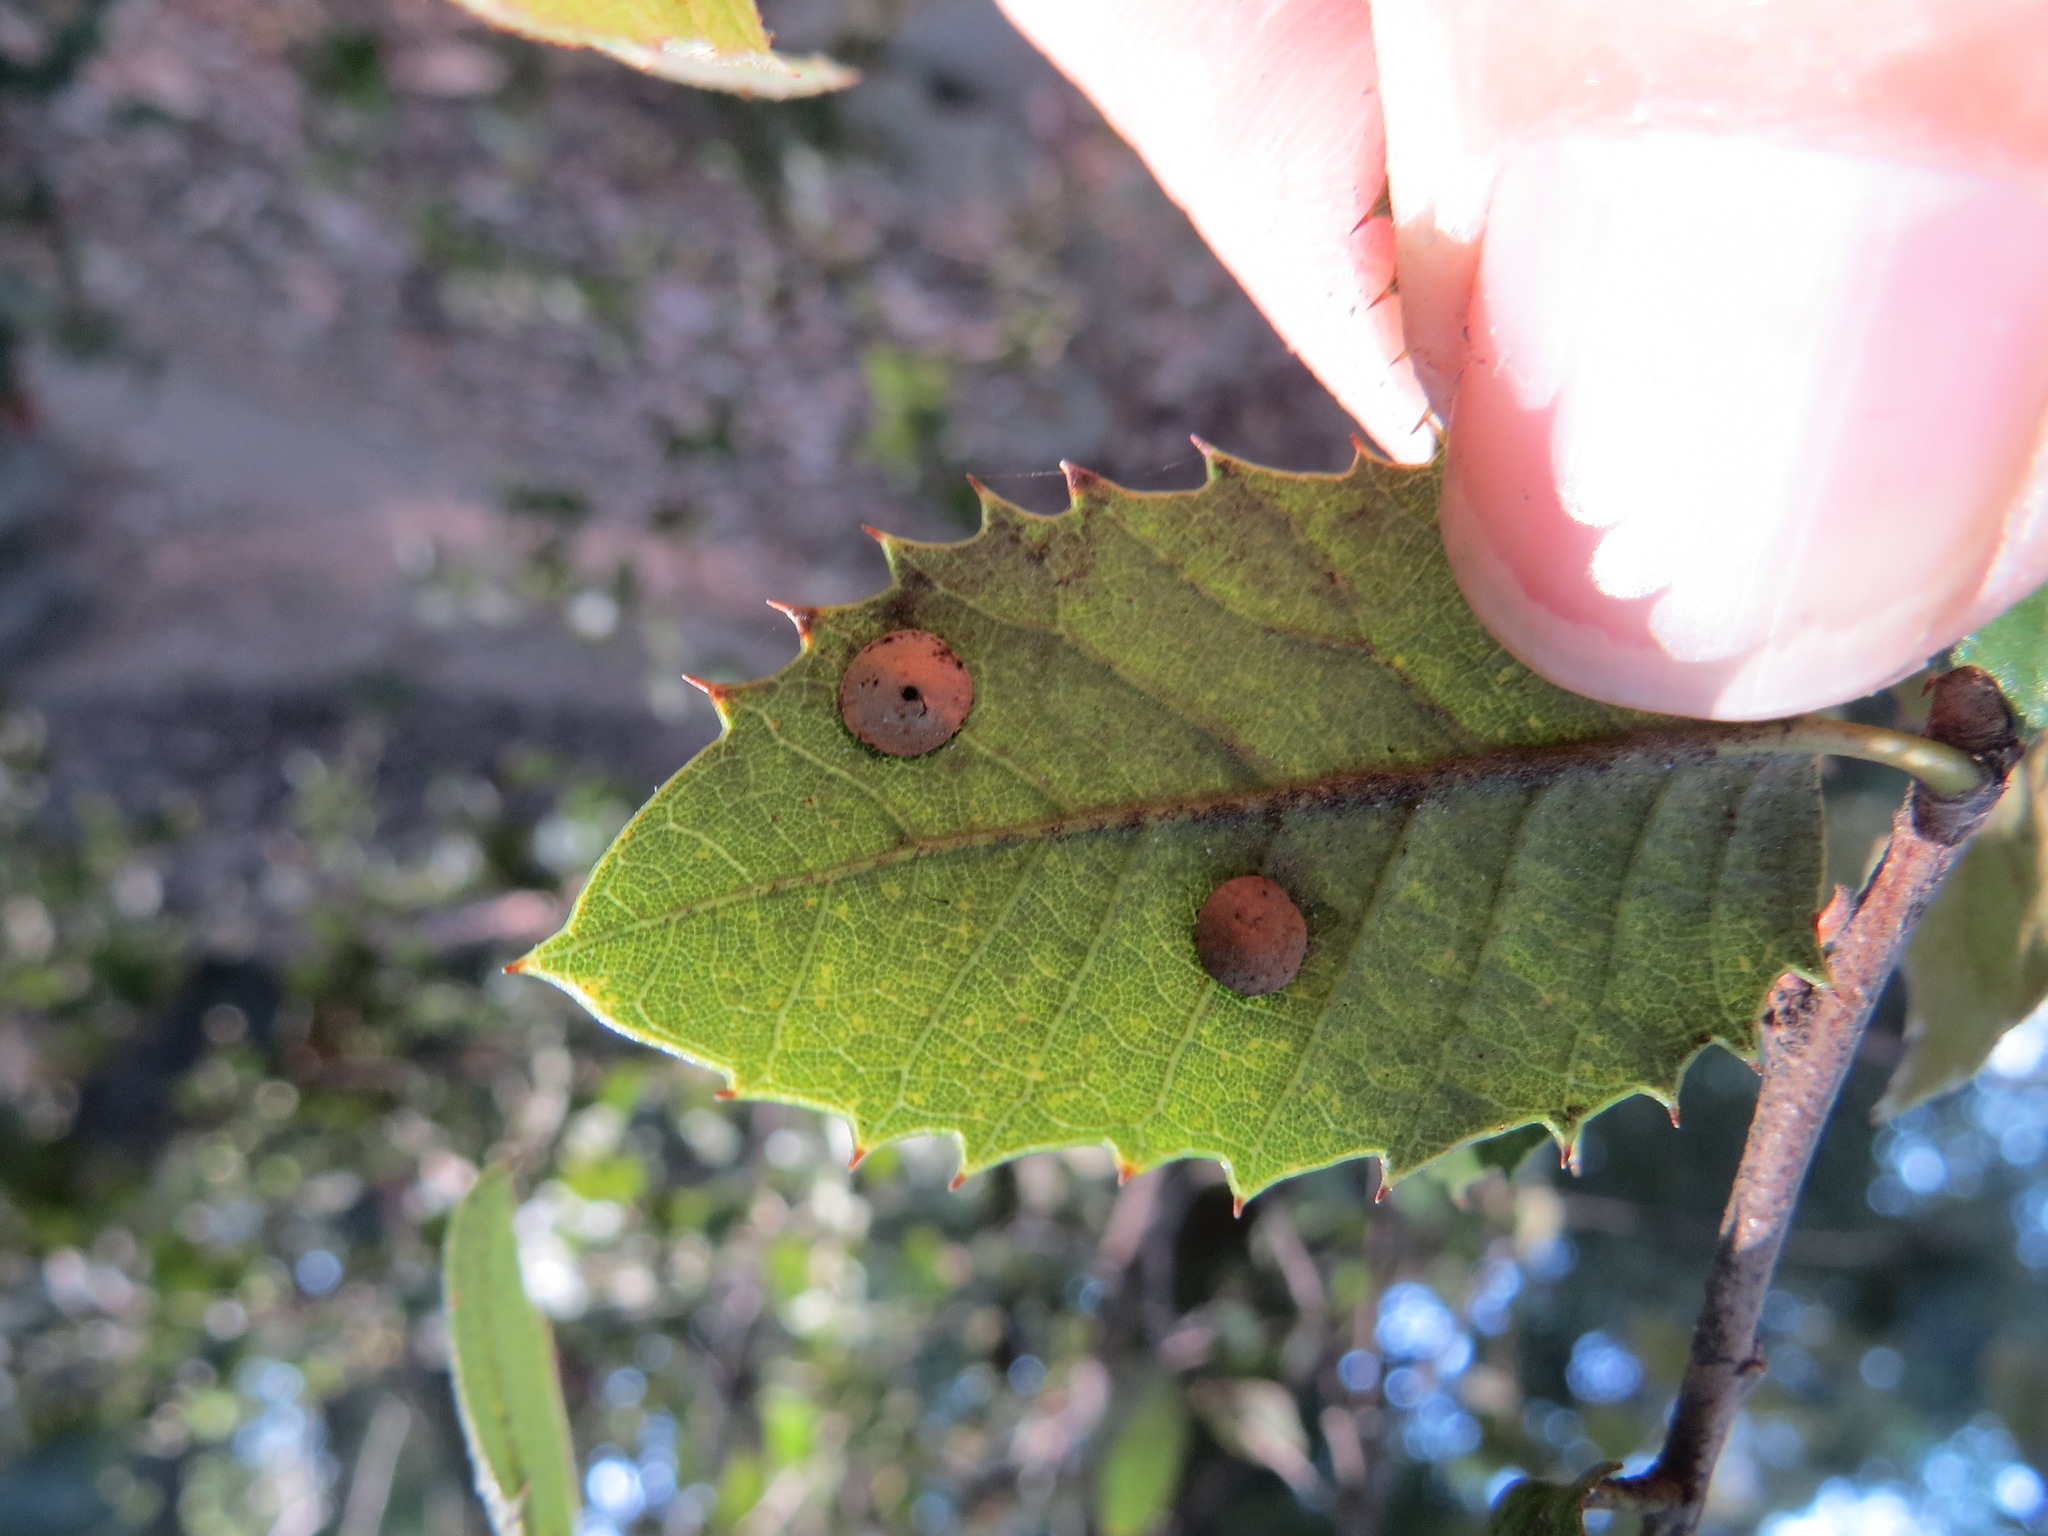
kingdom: Animalia
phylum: Arthropoda
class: Insecta
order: Hymenoptera
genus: Paracraspis
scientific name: Paracraspis
